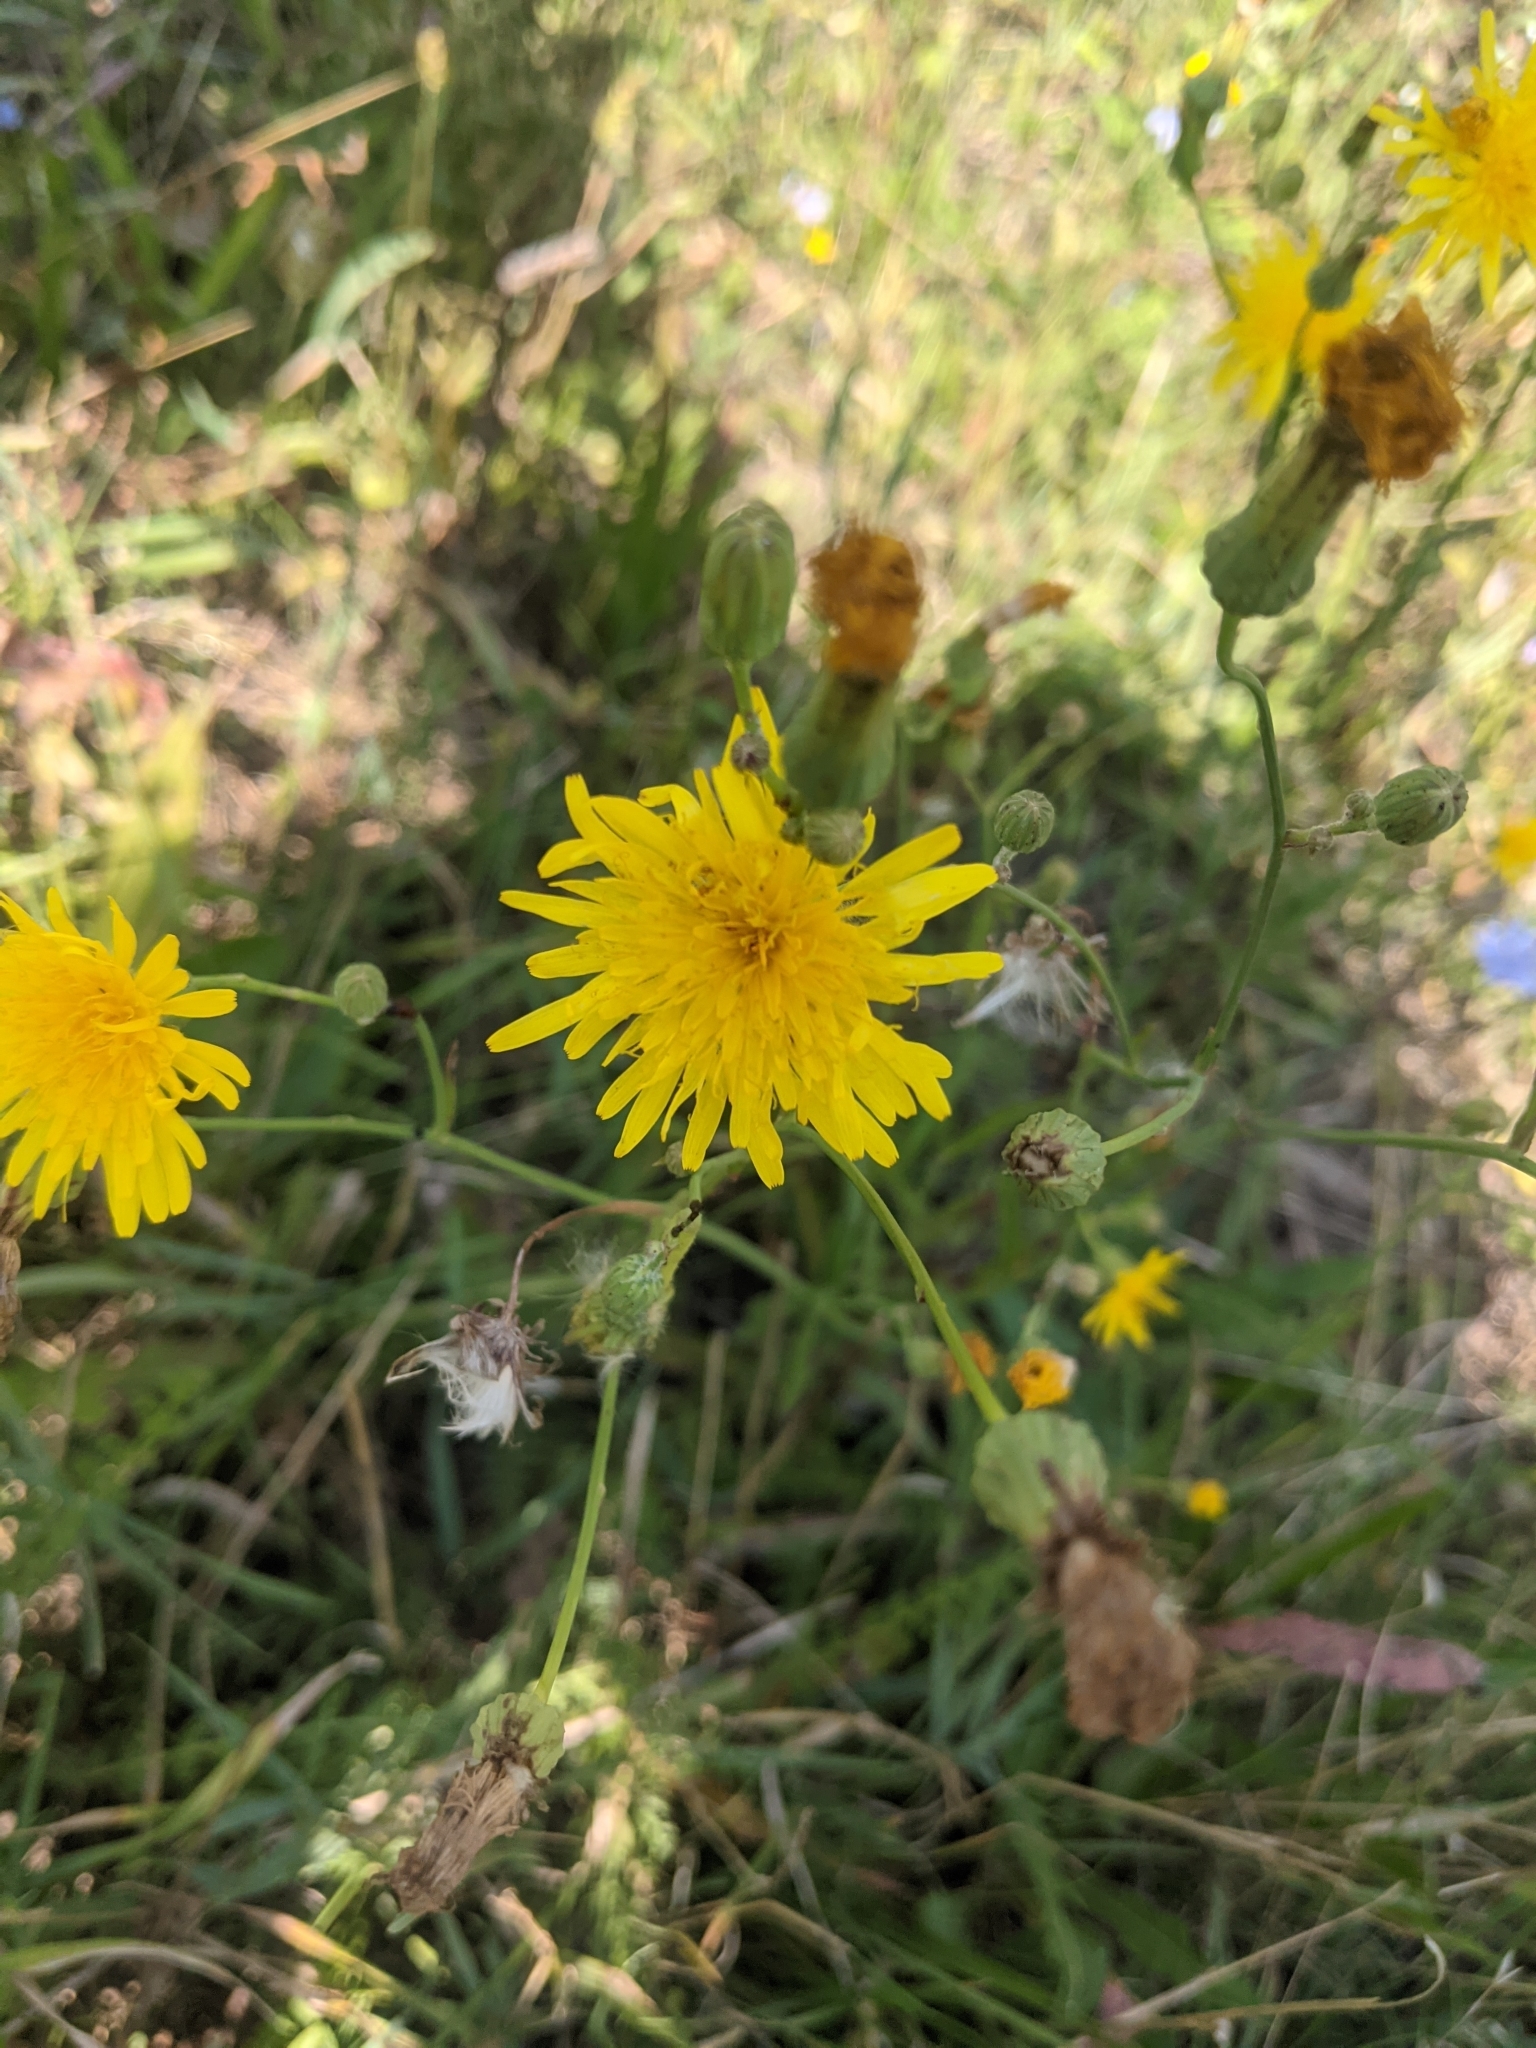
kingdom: Plantae
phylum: Tracheophyta
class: Magnoliopsida
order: Asterales
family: Asteraceae
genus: Sonchus
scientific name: Sonchus arvensis
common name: Perennial sow-thistle
